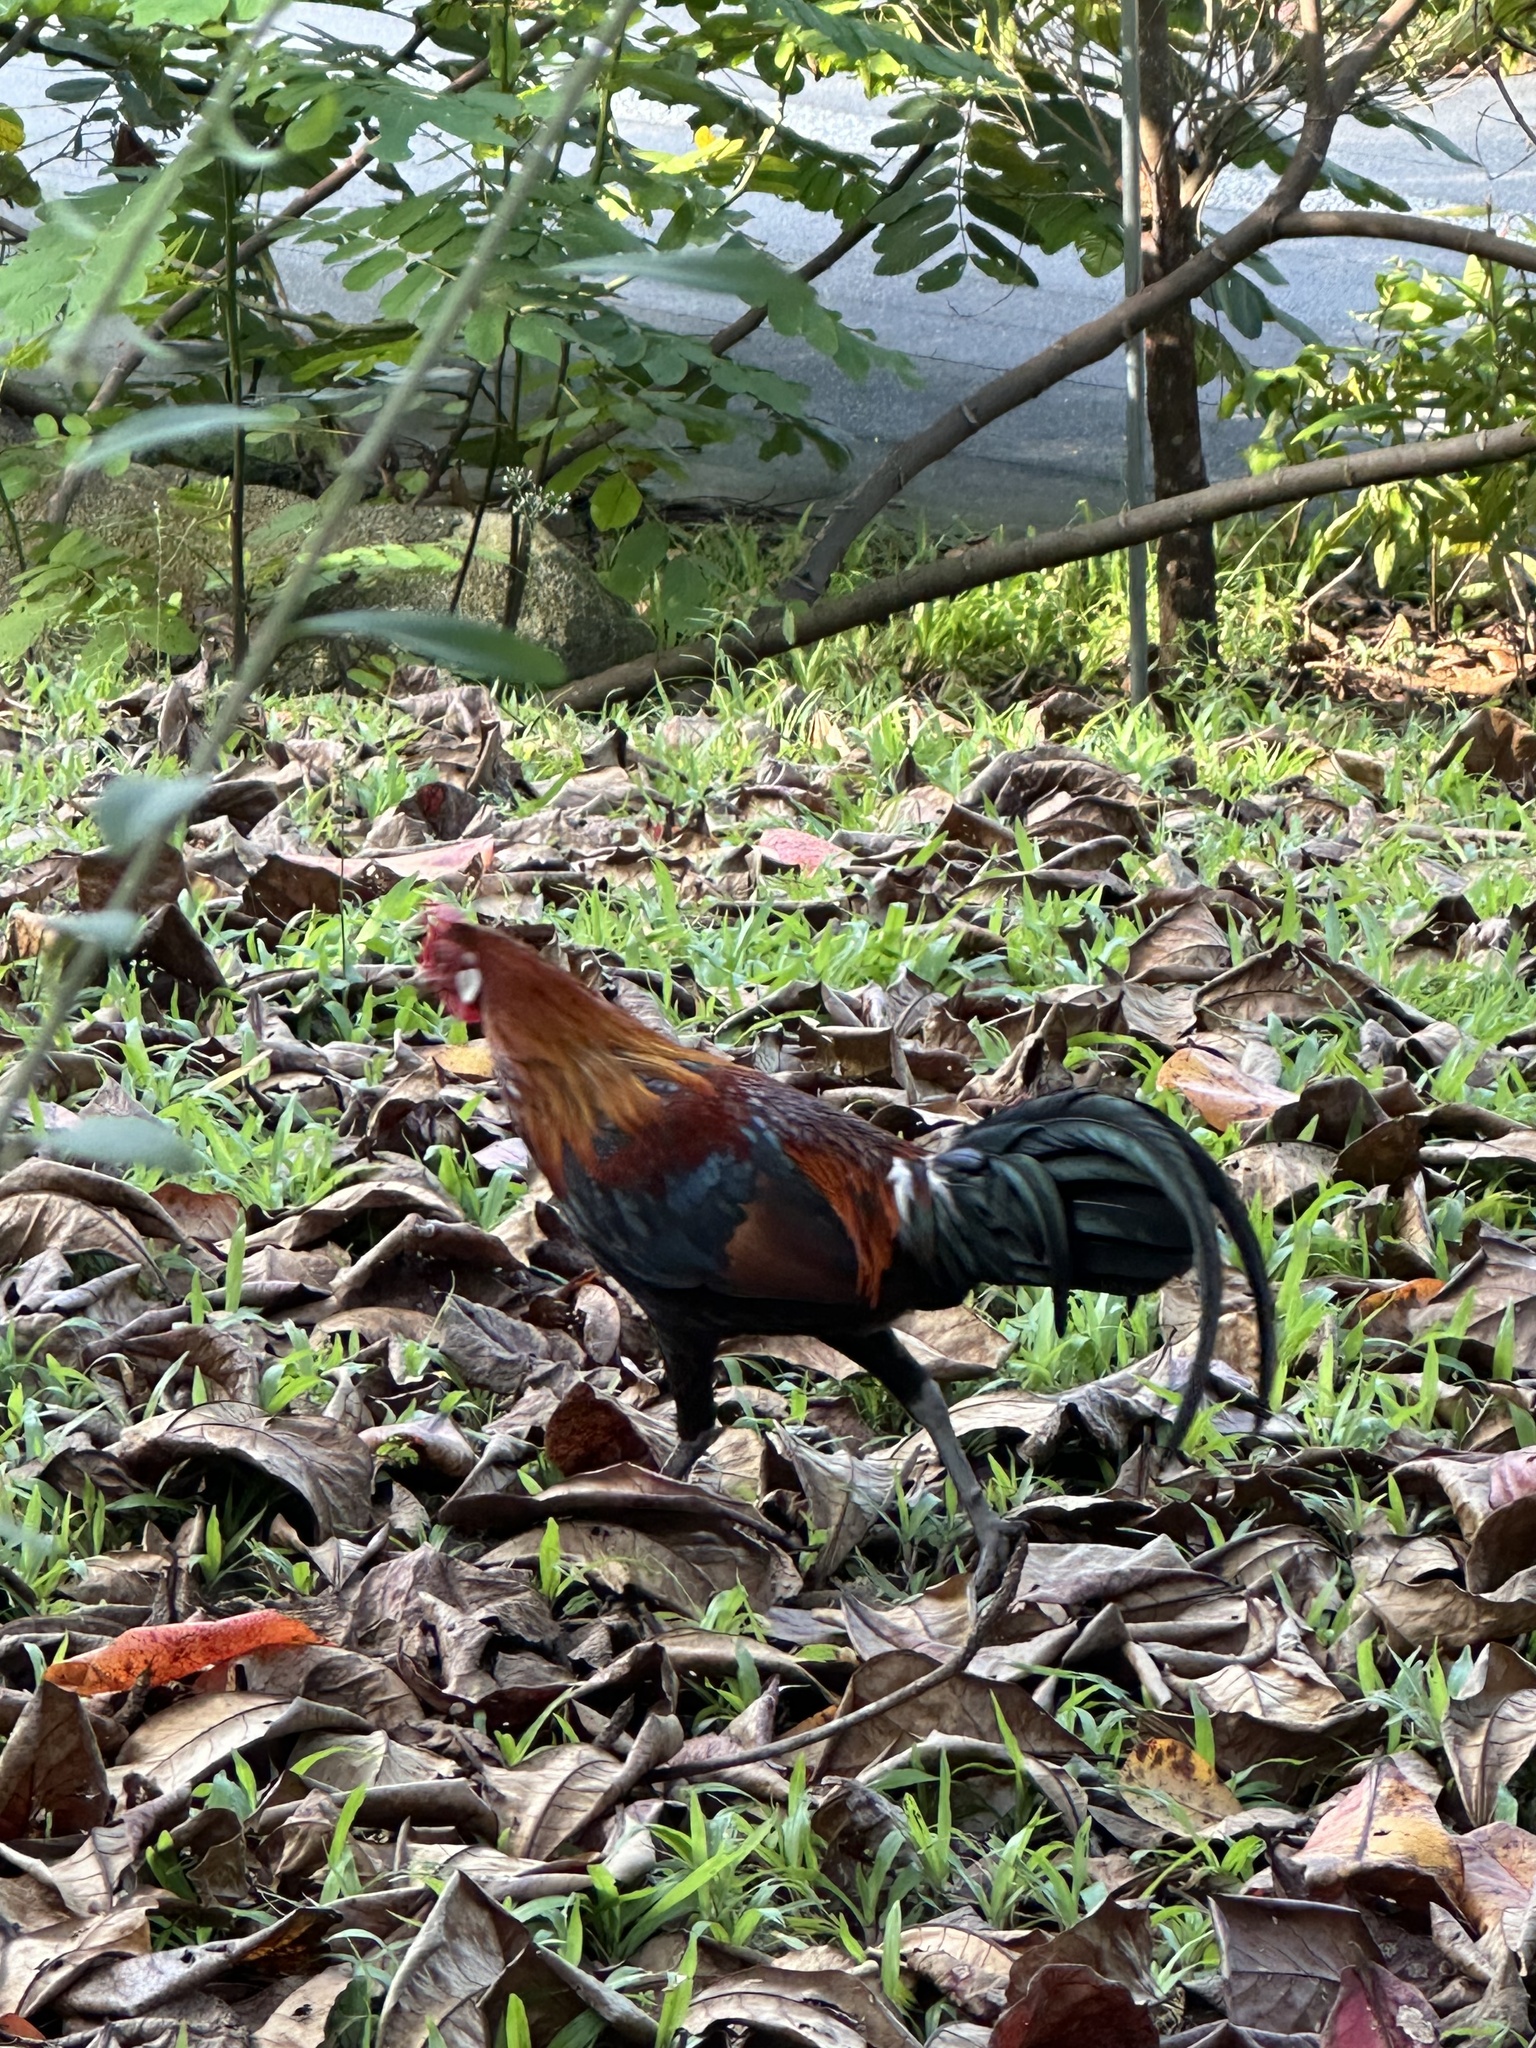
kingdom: Animalia
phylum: Chordata
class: Aves
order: Galliformes
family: Phasianidae
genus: Gallus
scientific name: Gallus gallus
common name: Red junglefowl
